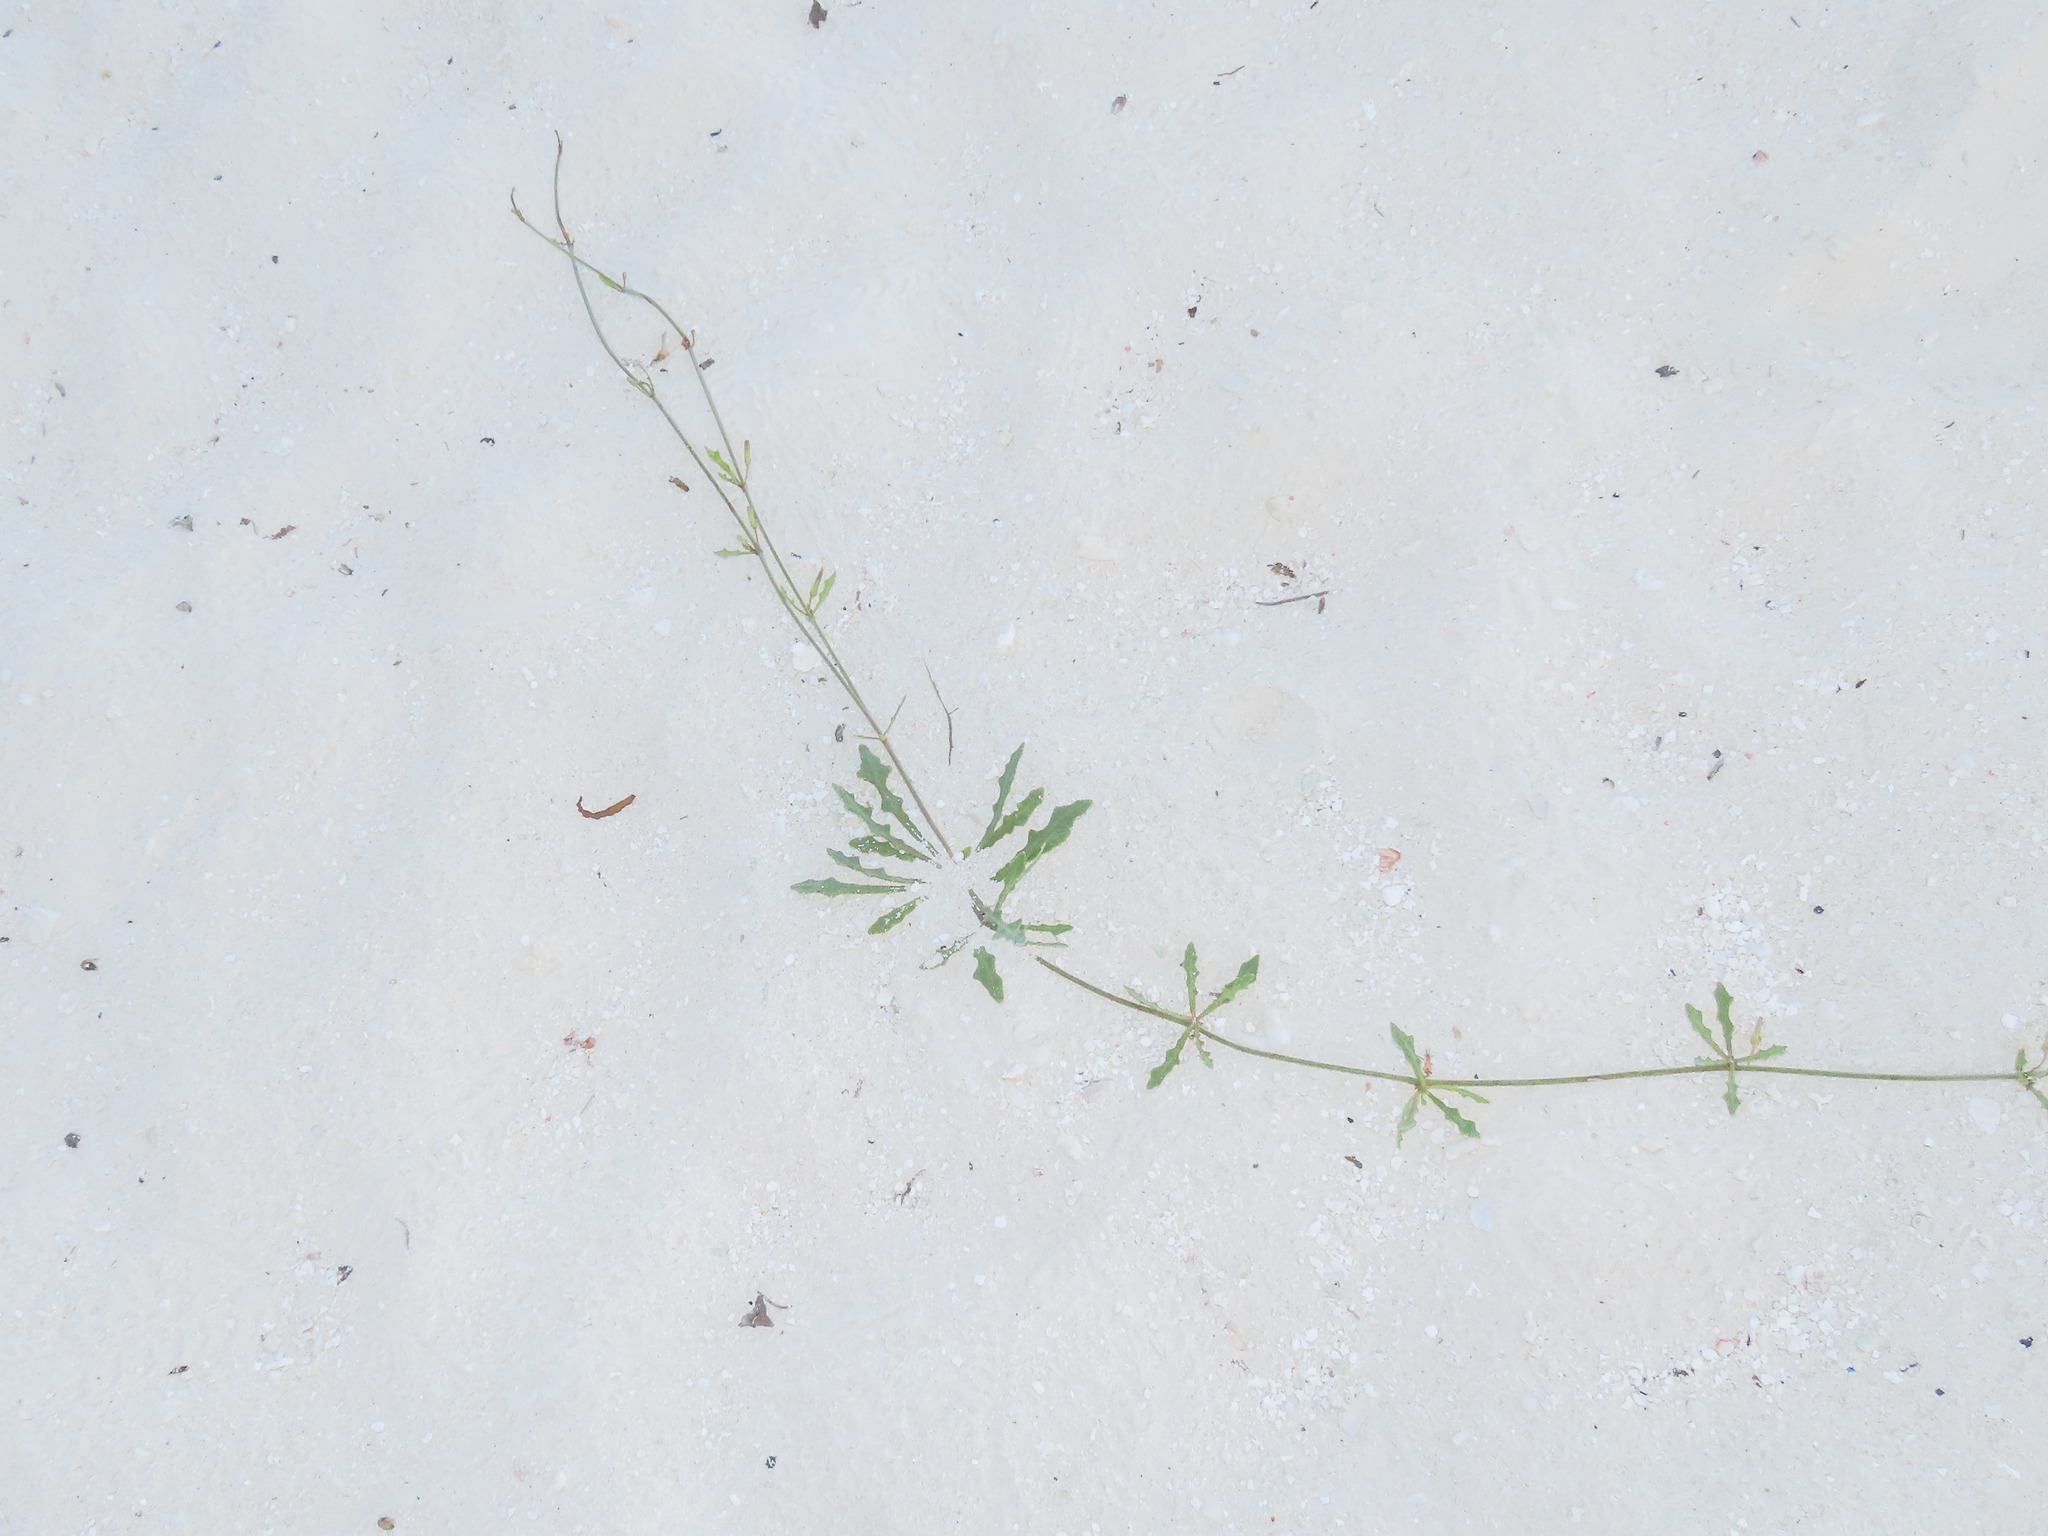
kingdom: Plantae
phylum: Tracheophyta
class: Magnoliopsida
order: Asterales
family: Asteraceae
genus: Launaea
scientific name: Launaea sarmentosa
